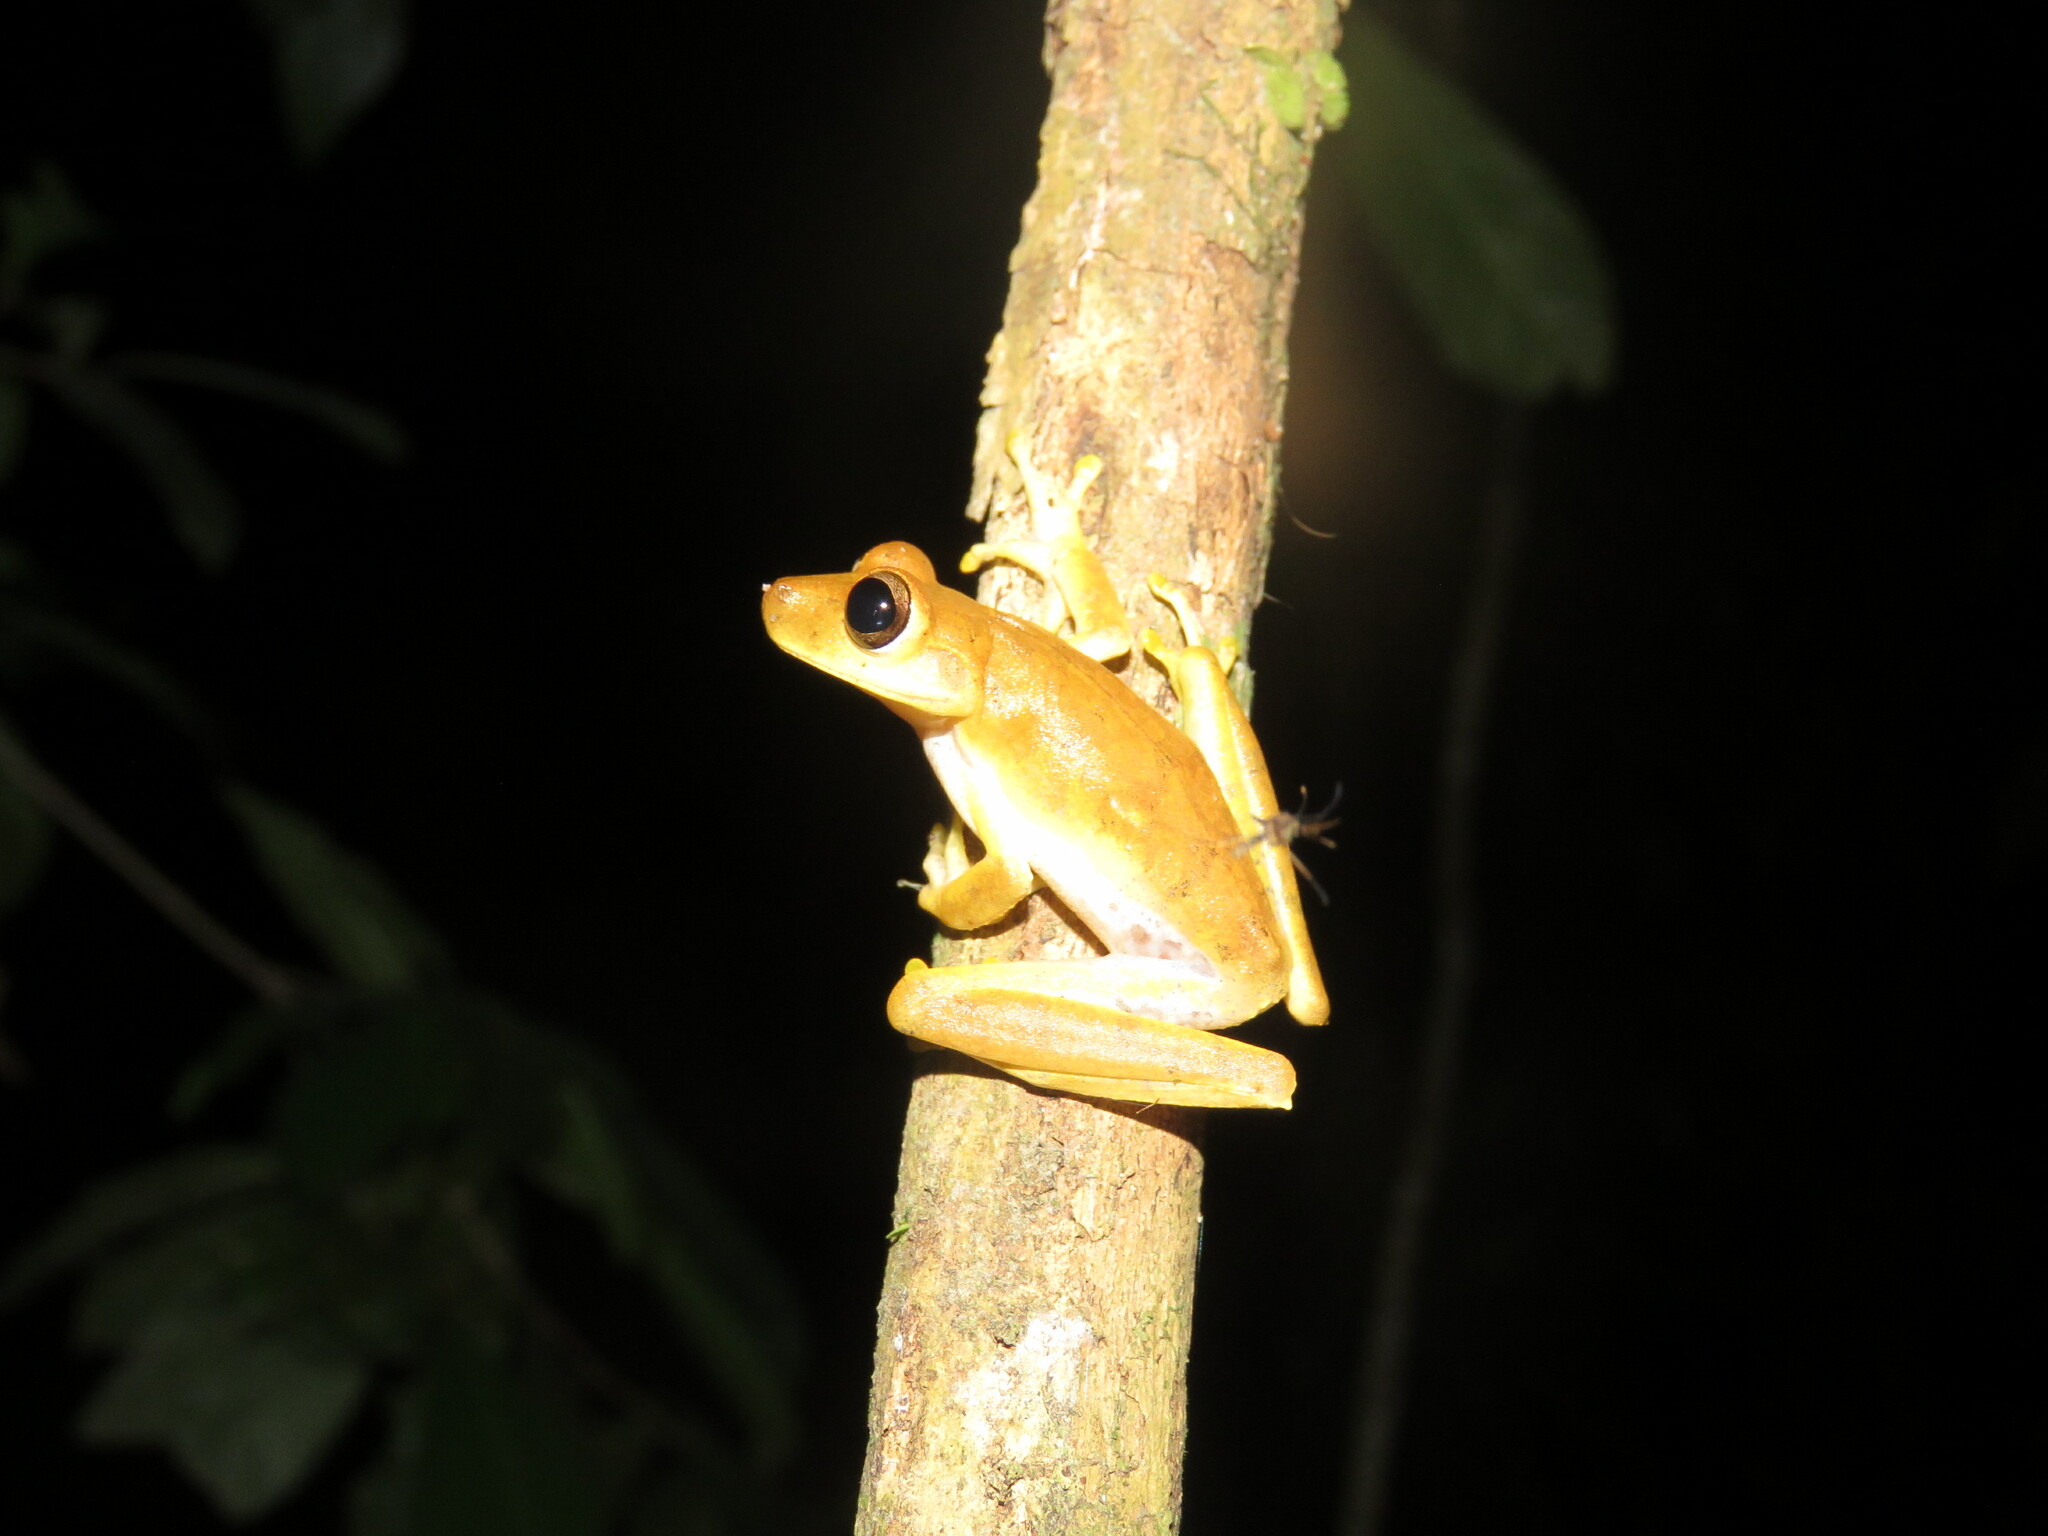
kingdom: Animalia
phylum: Chordata
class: Amphibia
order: Anura
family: Hylidae
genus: Boana
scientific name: Boana steinbachi
